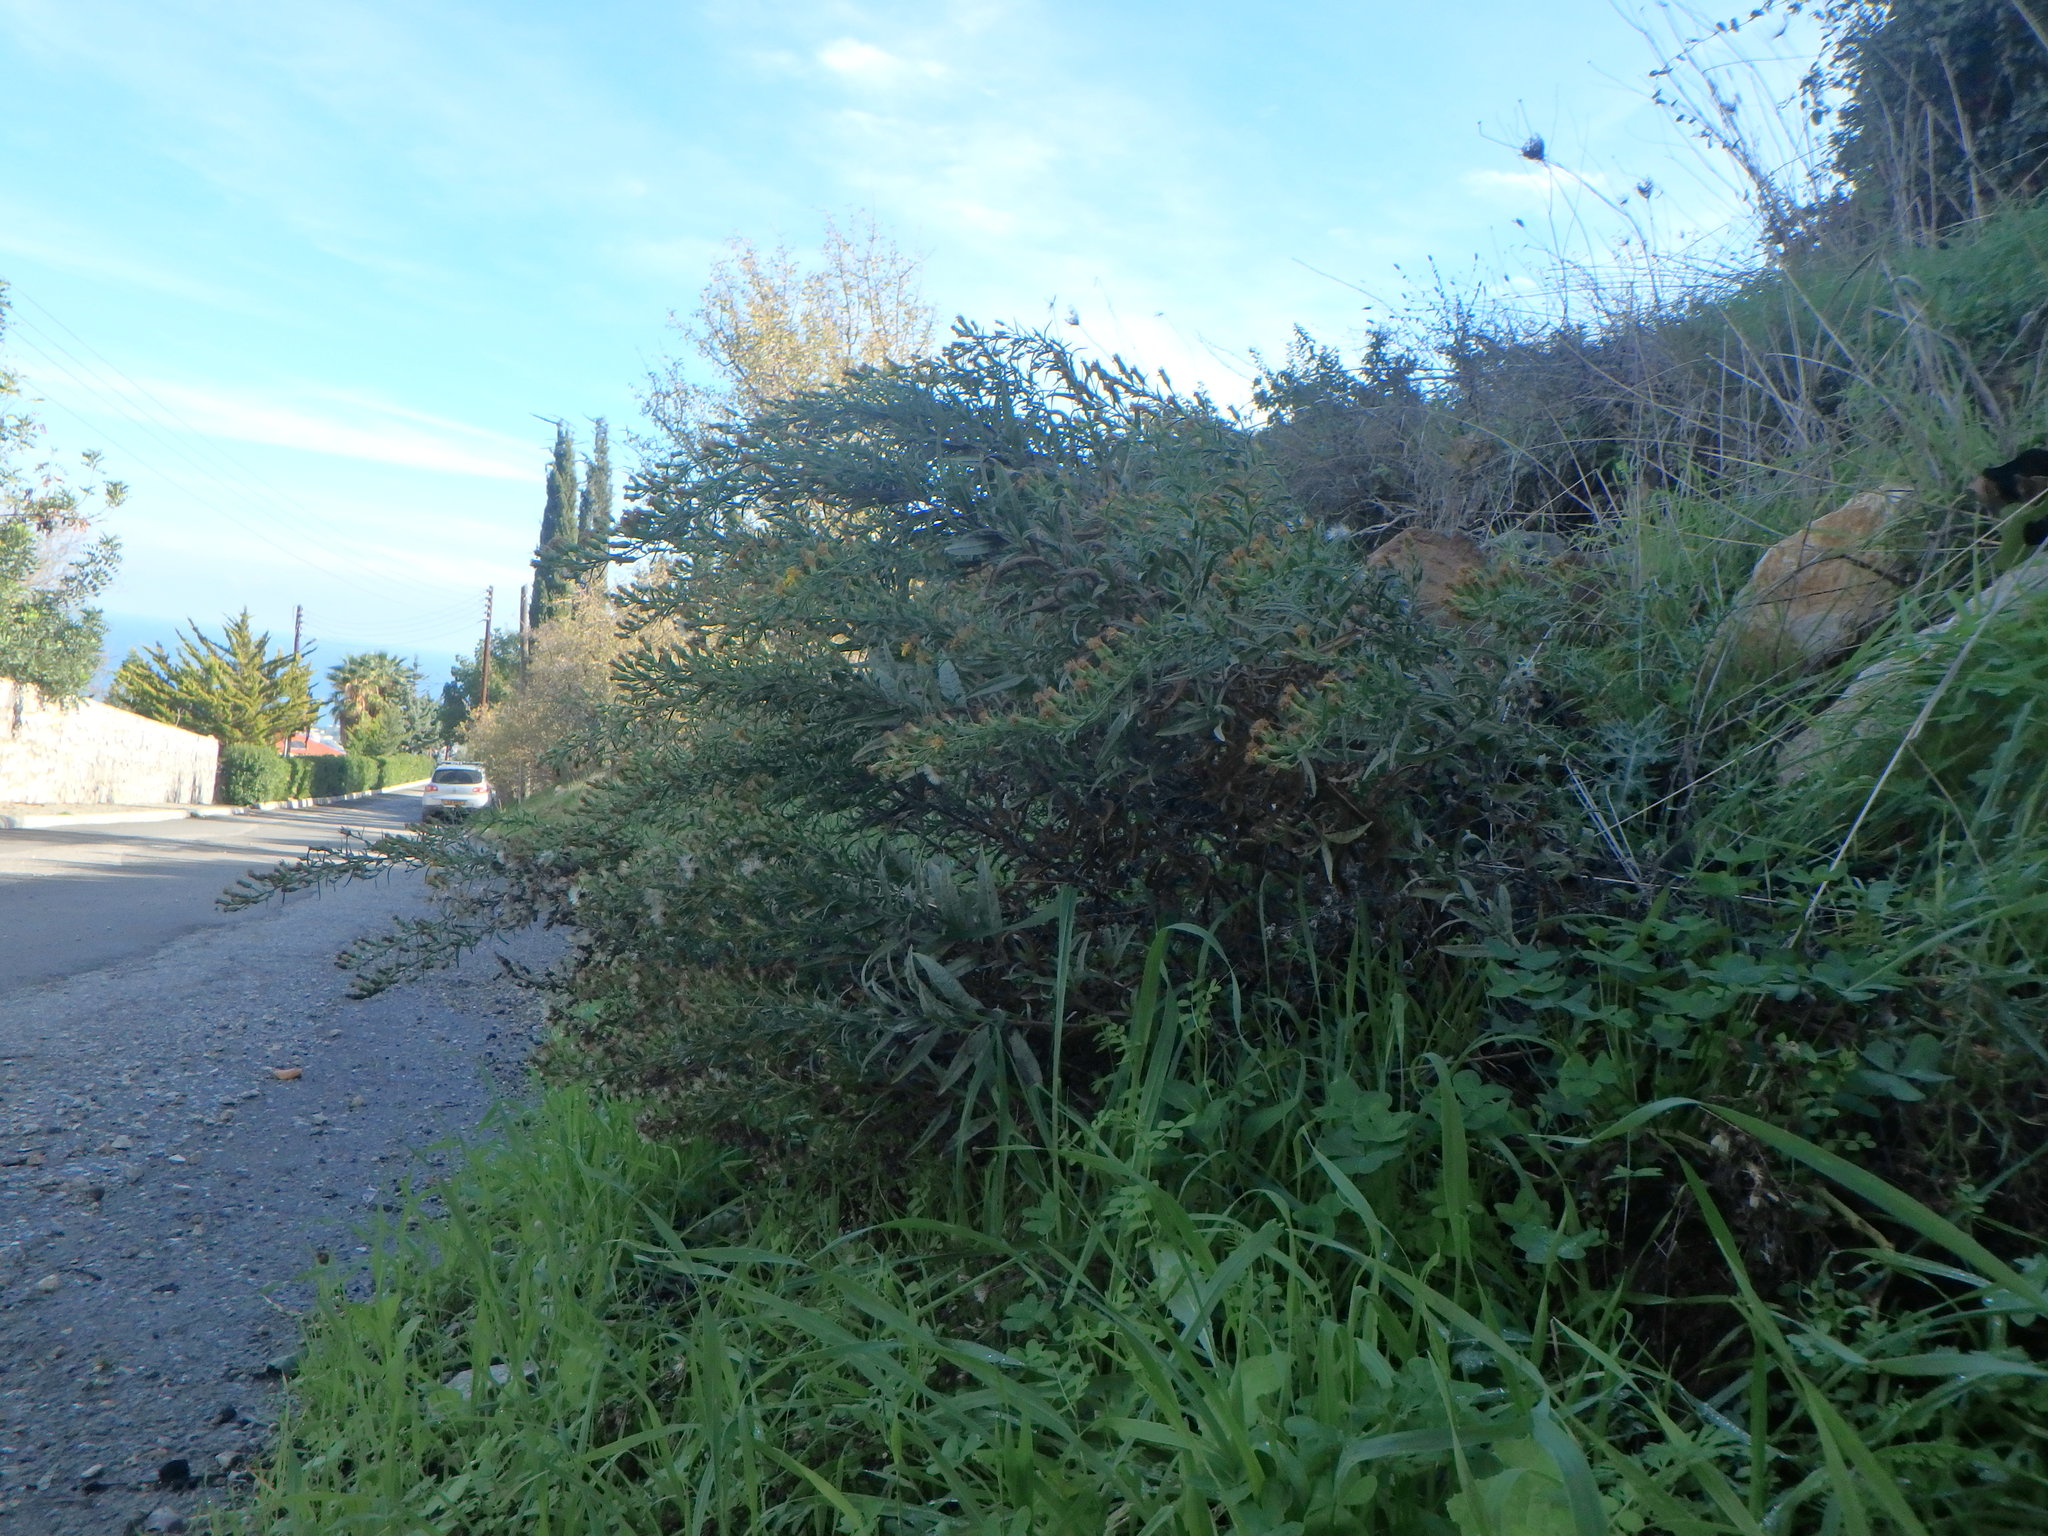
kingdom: Plantae
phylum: Tracheophyta
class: Magnoliopsida
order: Asterales
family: Asteraceae
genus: Dittrichia
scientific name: Dittrichia viscosa
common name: Woody fleabane
